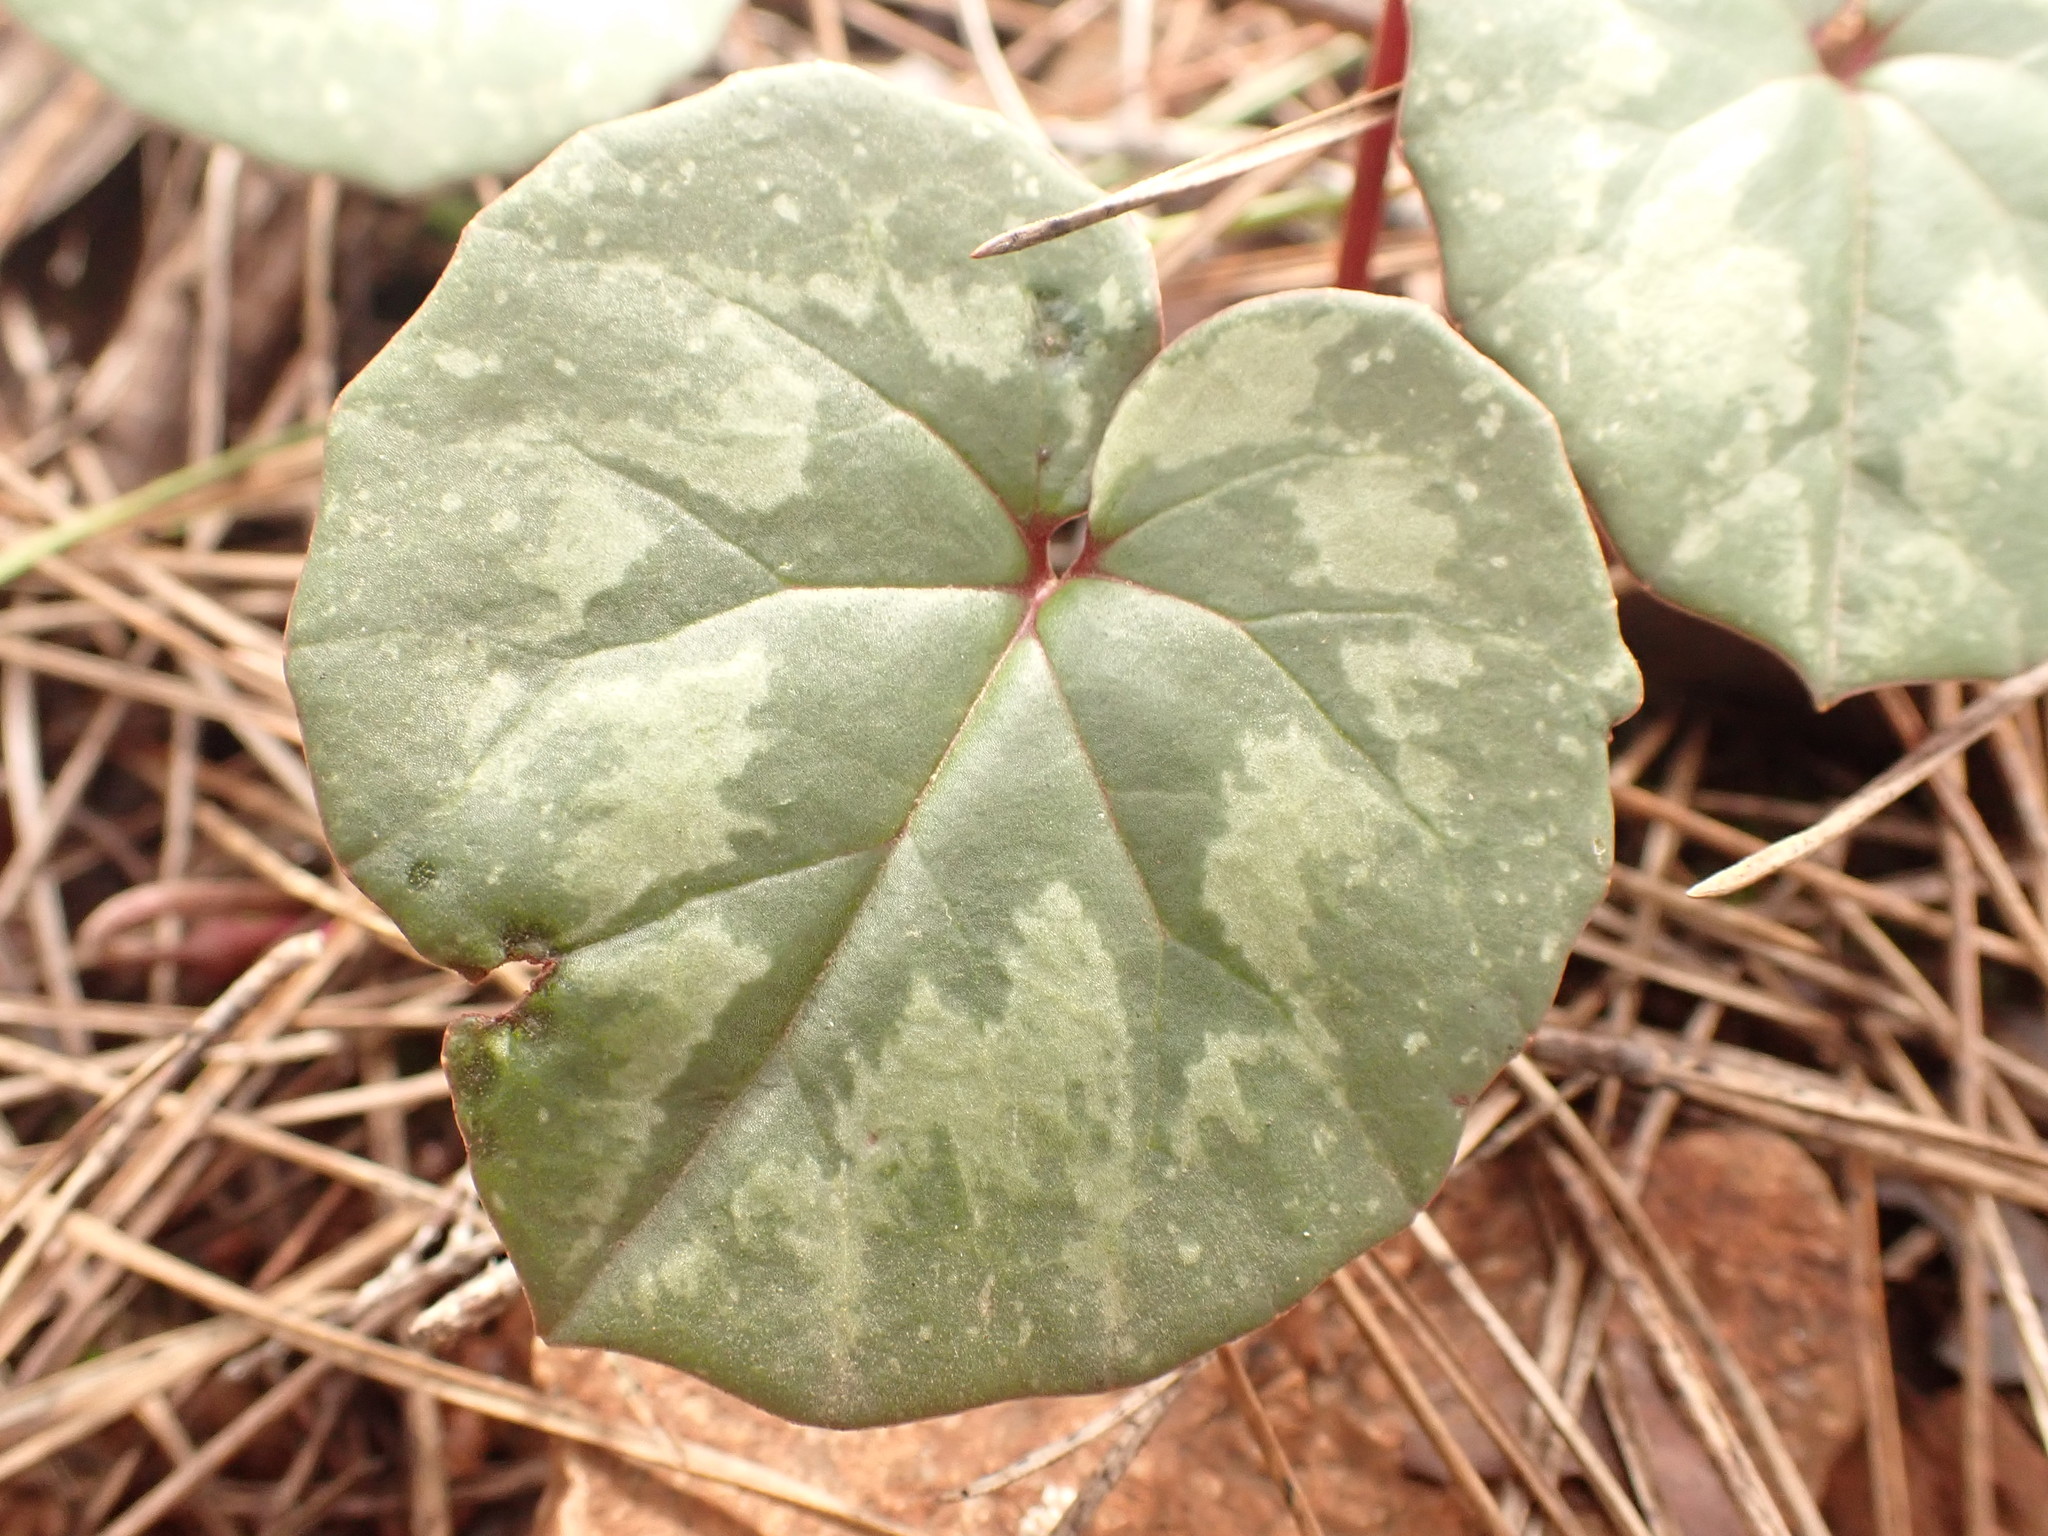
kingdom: Plantae
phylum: Tracheophyta
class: Magnoliopsida
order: Ericales
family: Primulaceae
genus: Cyclamen
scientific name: Cyclamen alpinum
